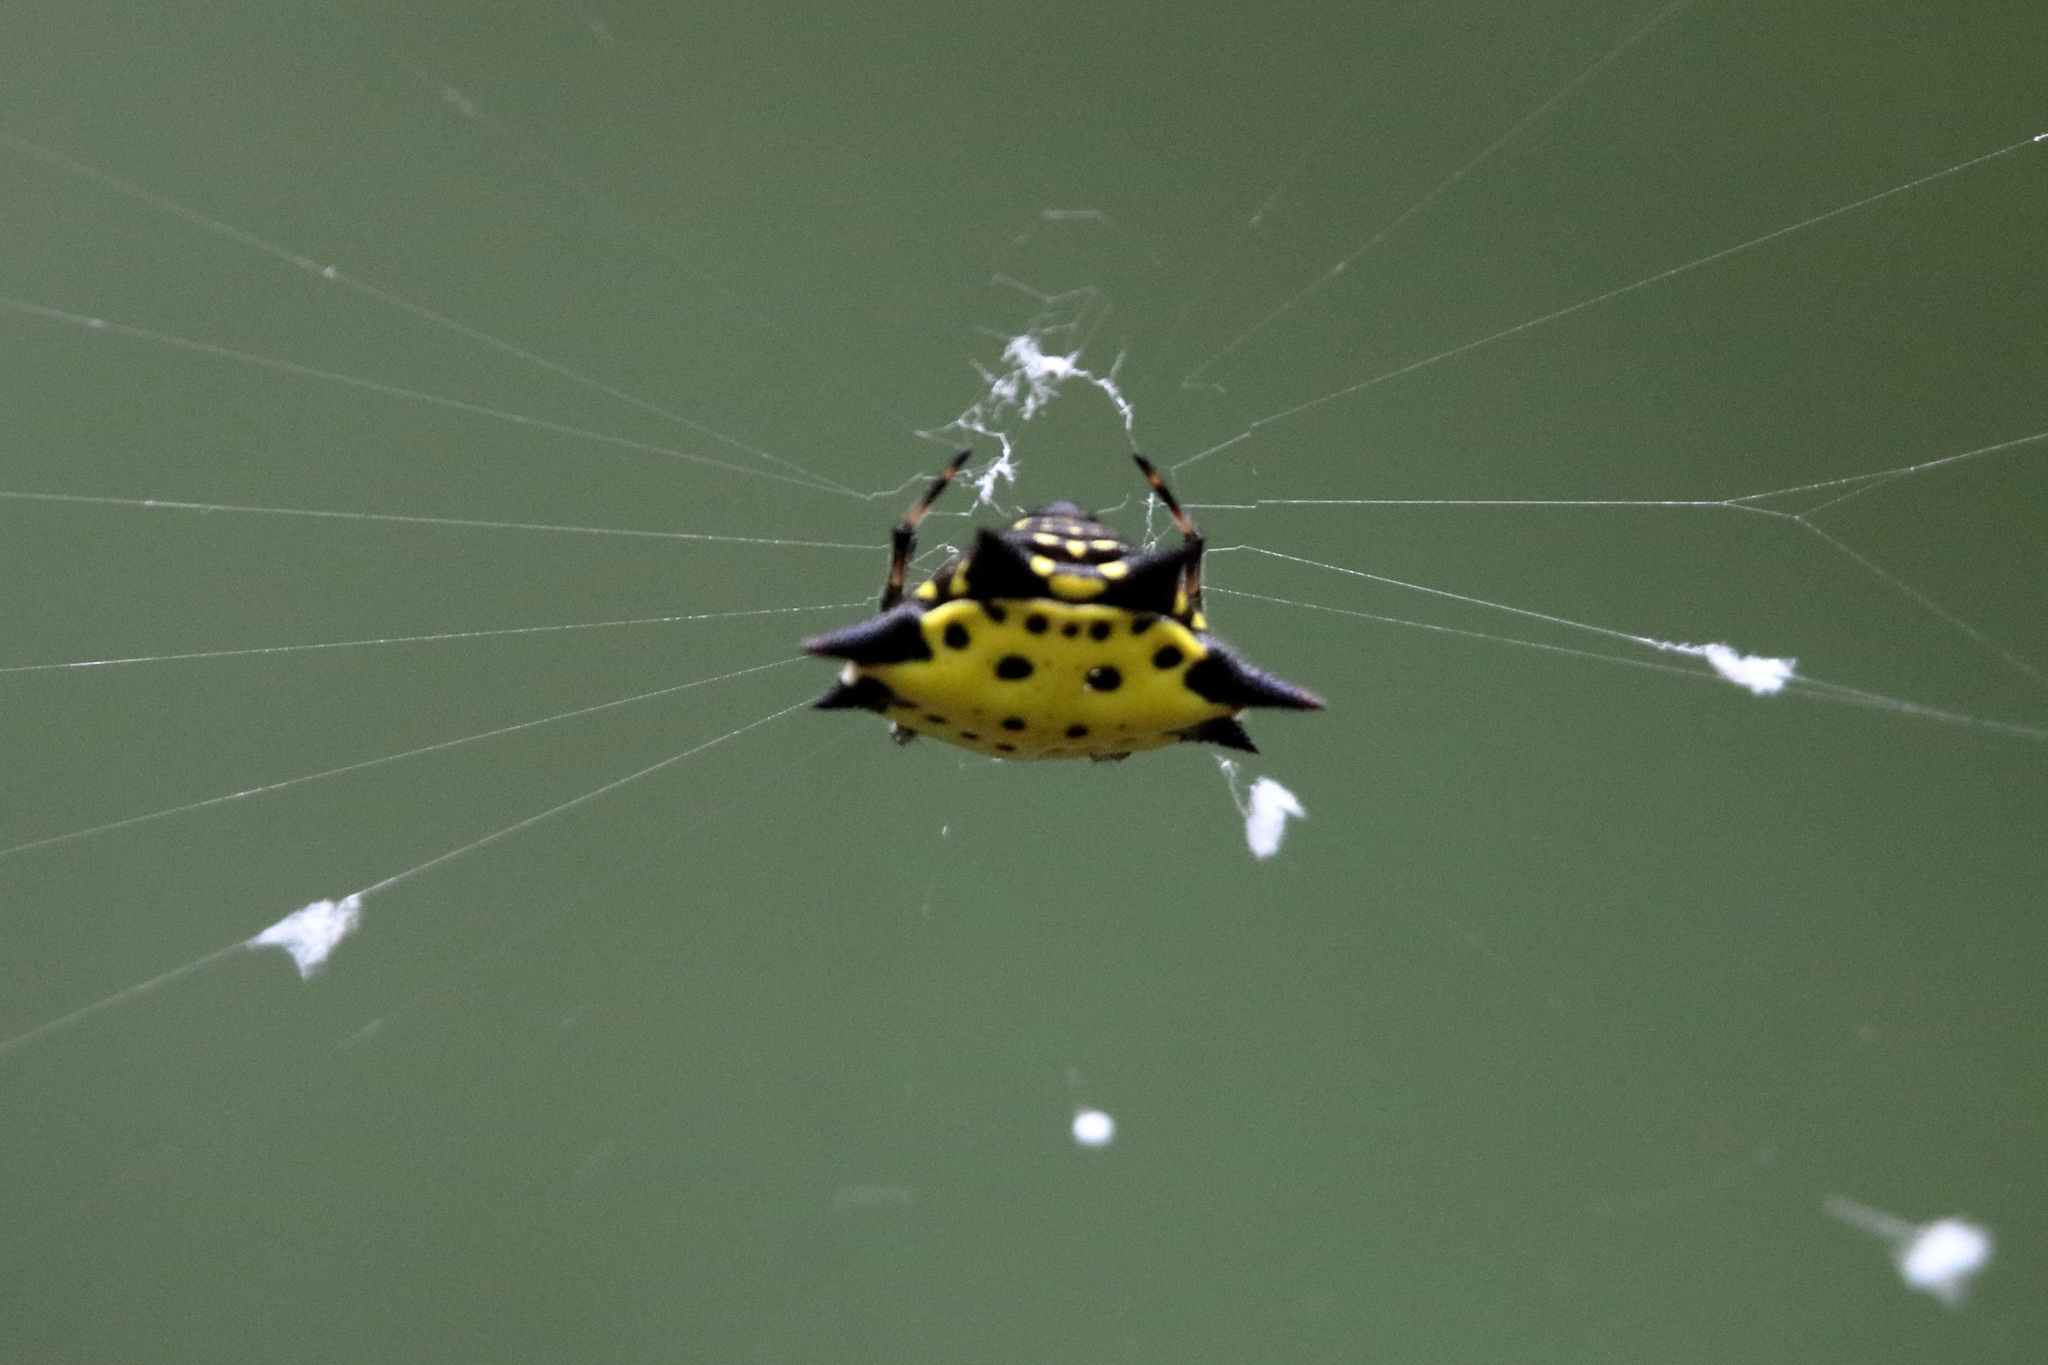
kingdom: Animalia
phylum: Arthropoda
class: Arachnida
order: Araneae
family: Araneidae
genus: Gasteracantha
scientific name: Gasteracantha cancriformis
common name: Orb weavers
